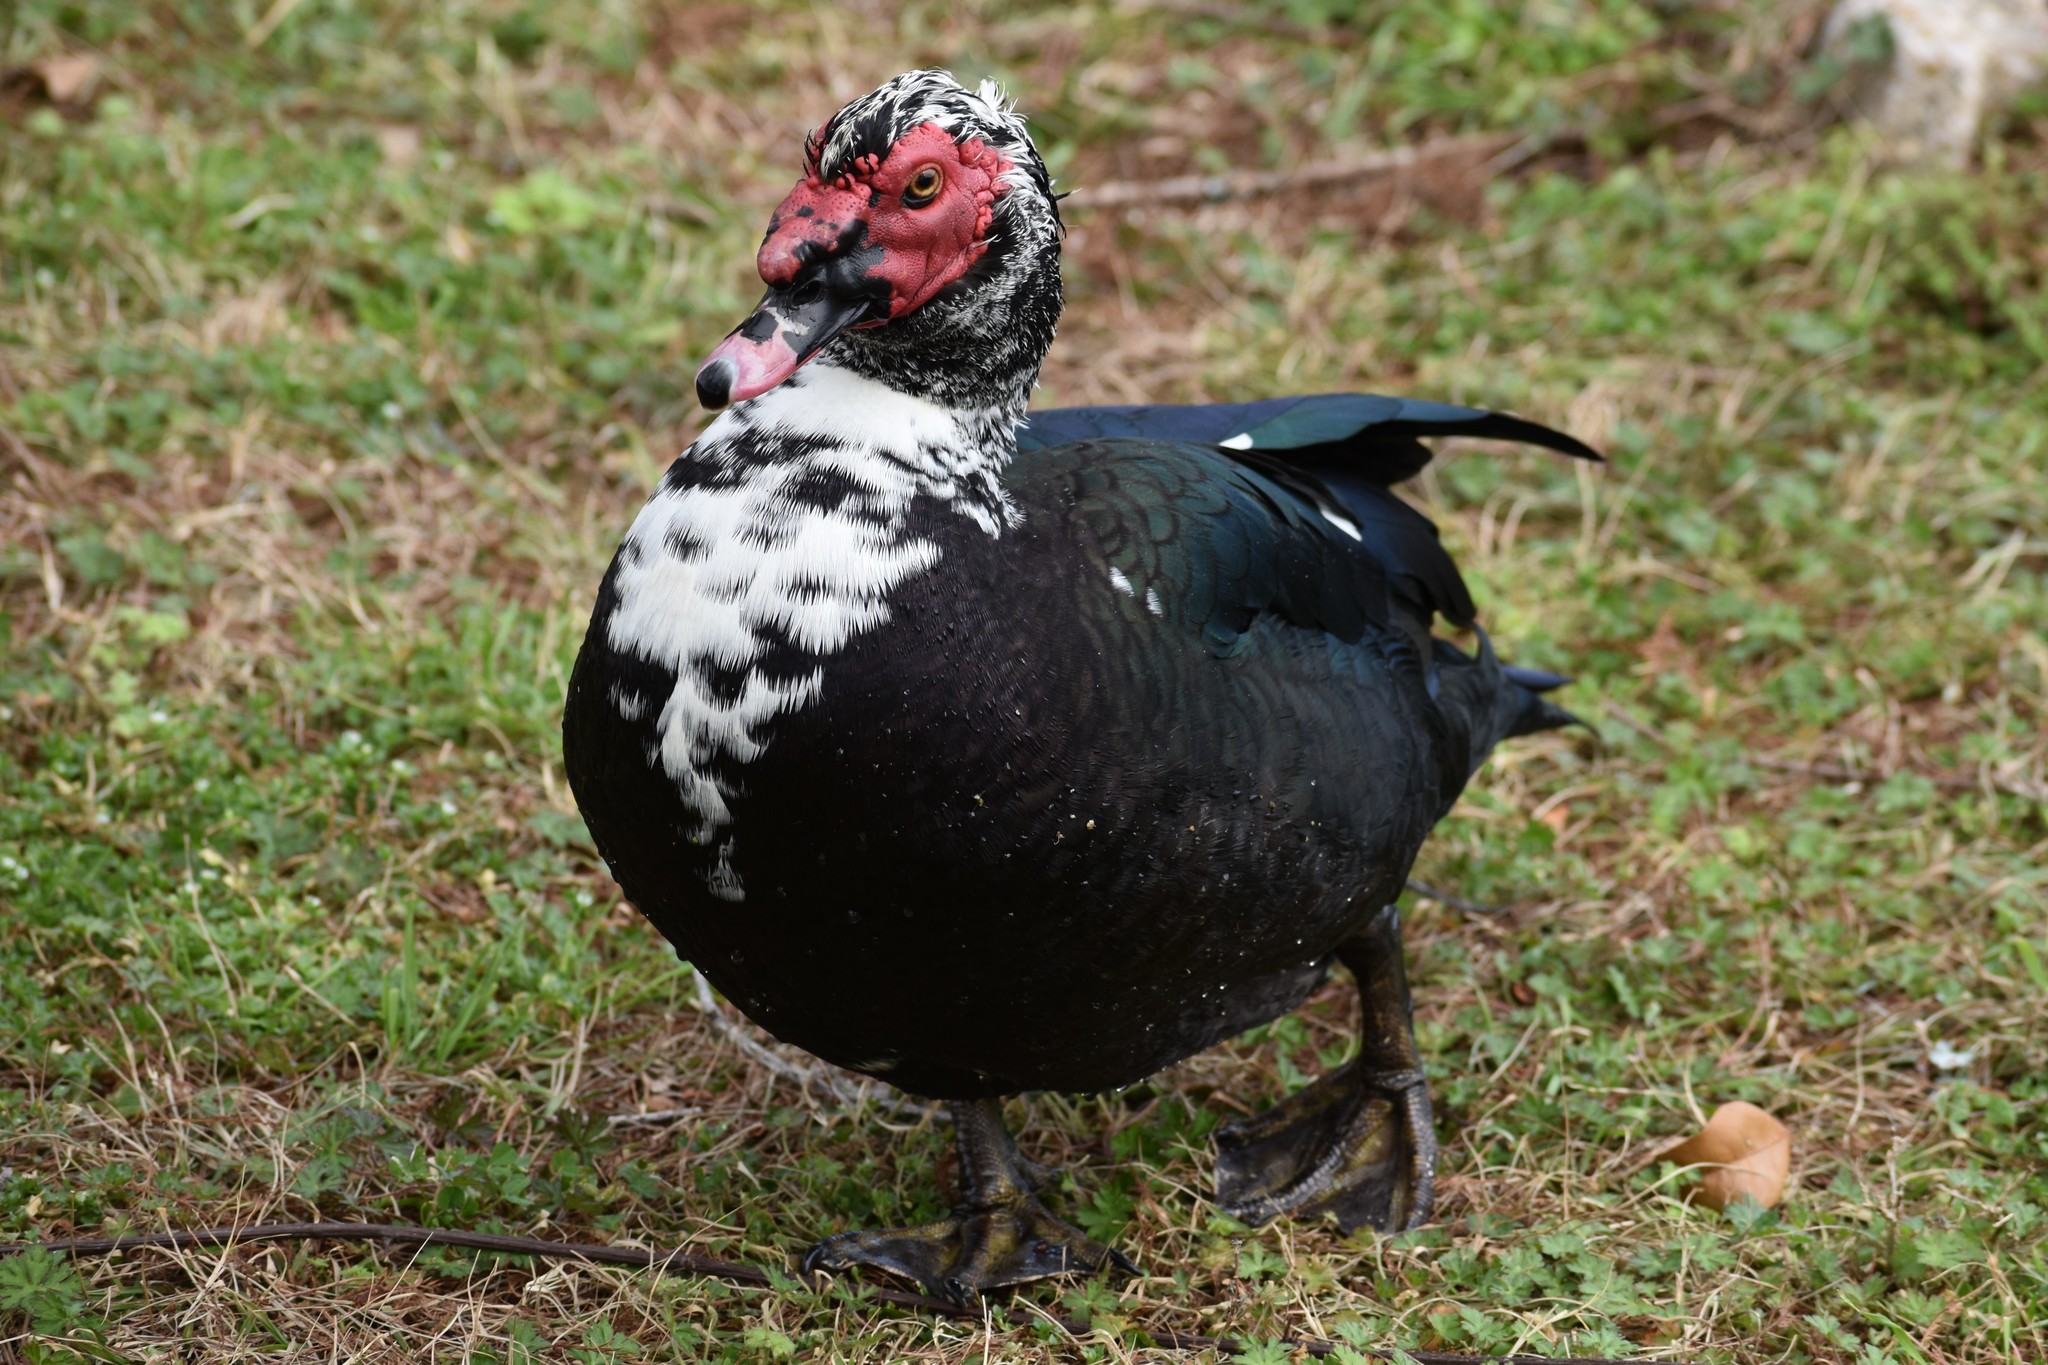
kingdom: Animalia
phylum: Chordata
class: Aves
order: Anseriformes
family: Anatidae
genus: Cairina
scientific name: Cairina moschata
